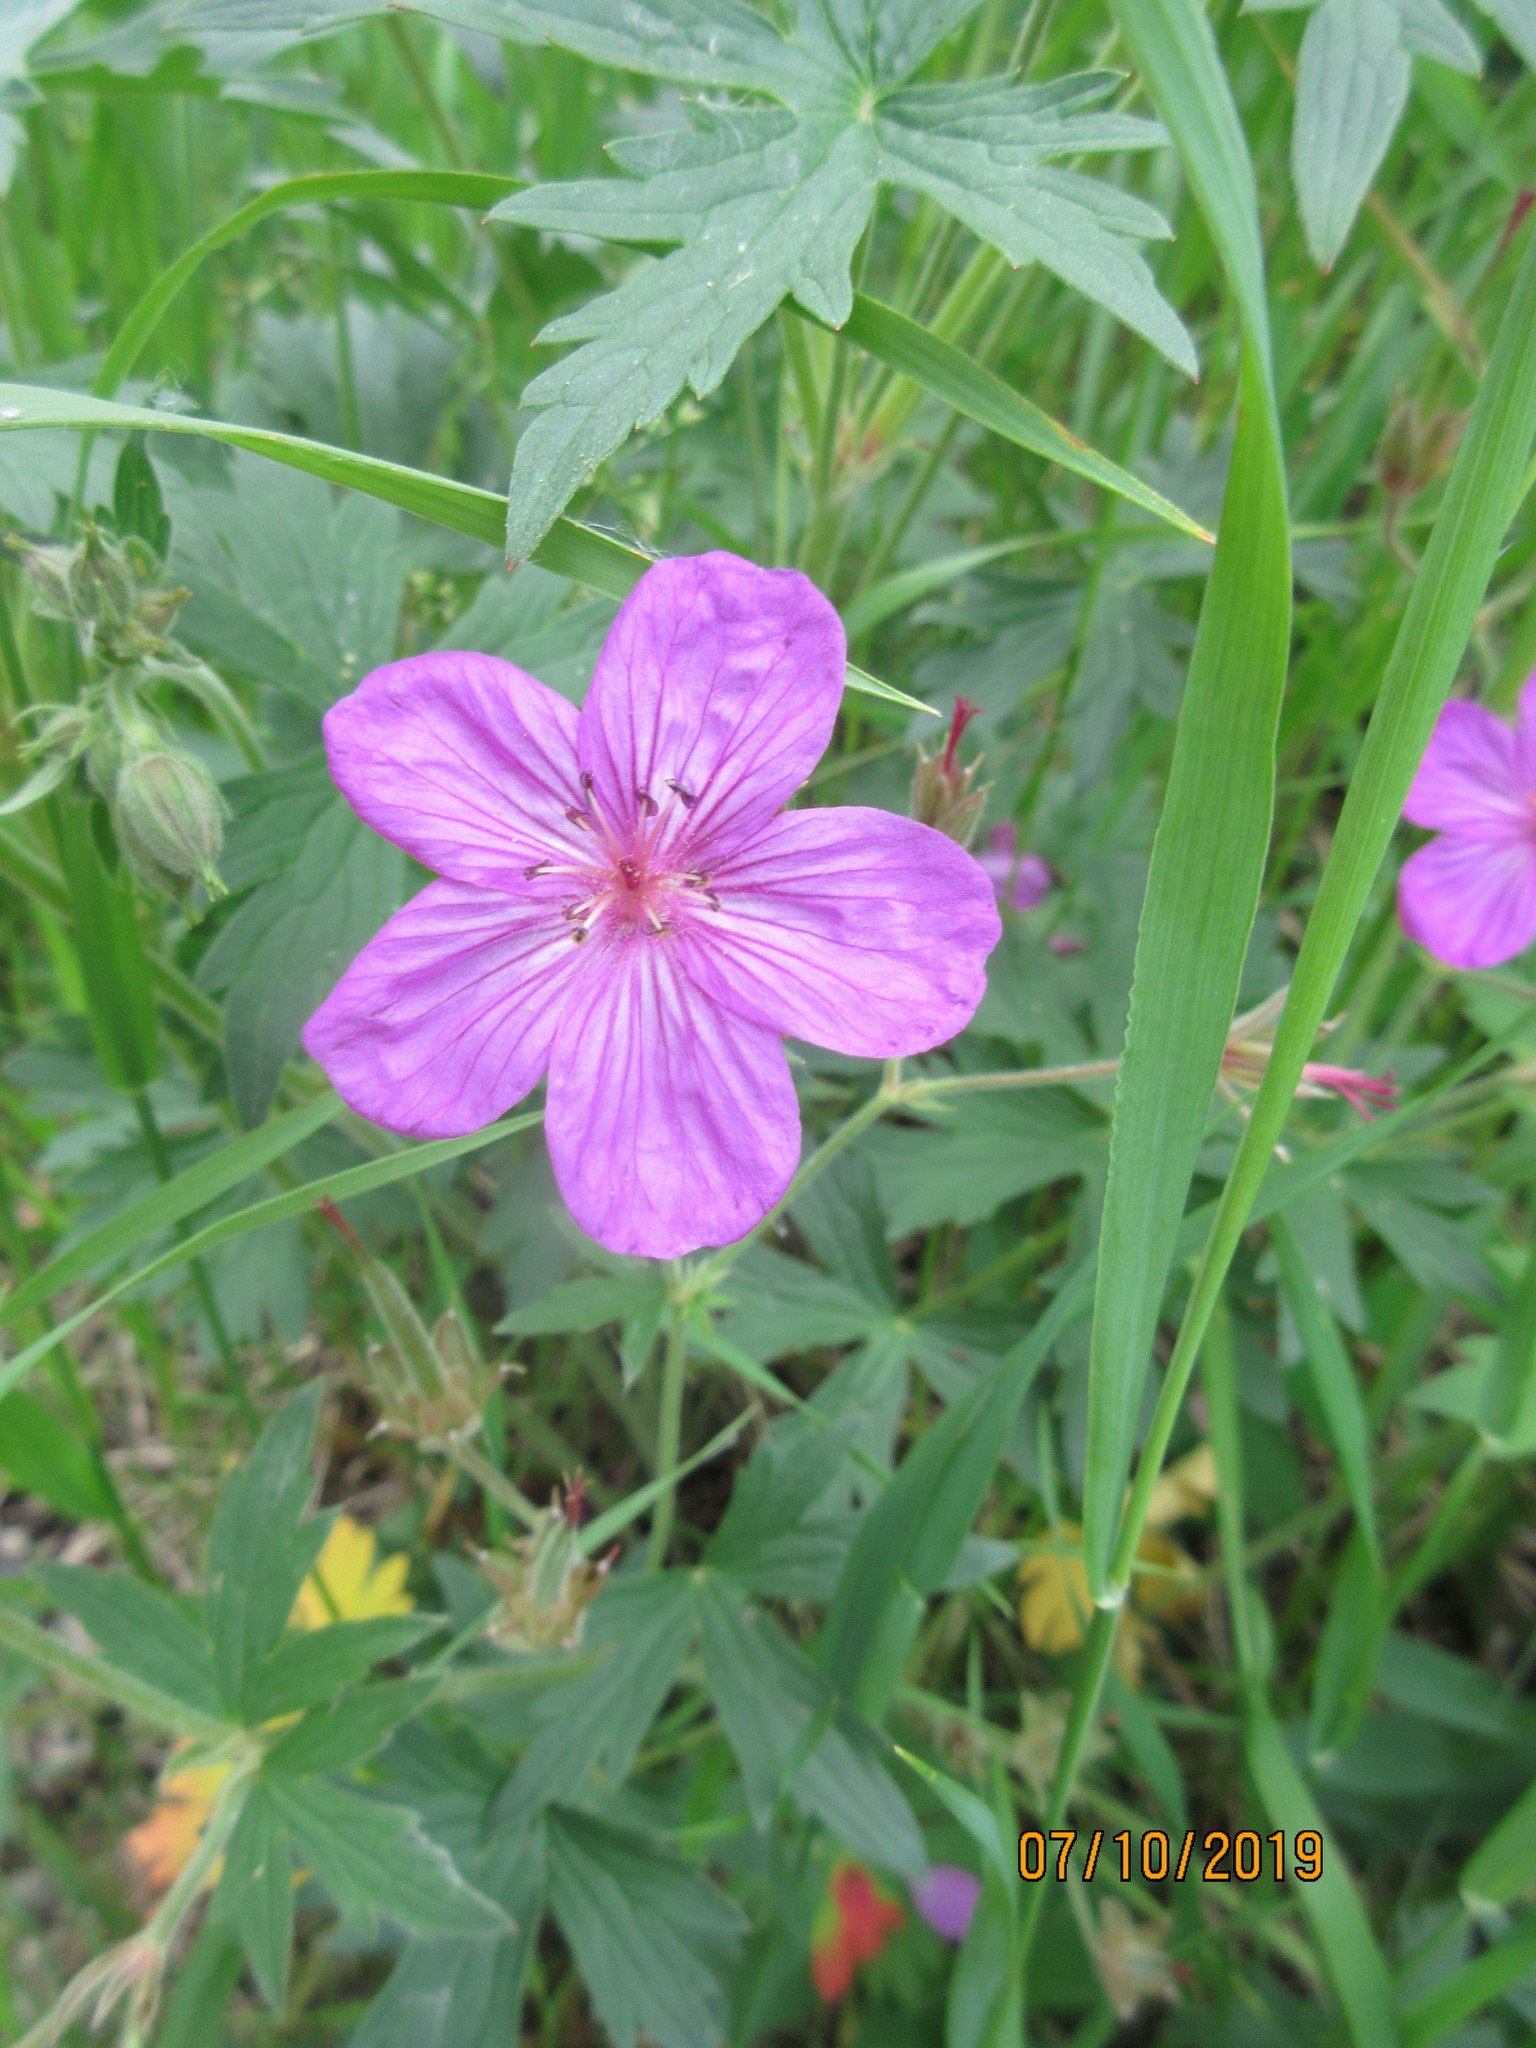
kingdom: Plantae
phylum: Tracheophyta
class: Magnoliopsida
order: Geraniales
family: Geraniaceae
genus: Geranium
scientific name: Geranium viscosissimum
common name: Purple geranium
